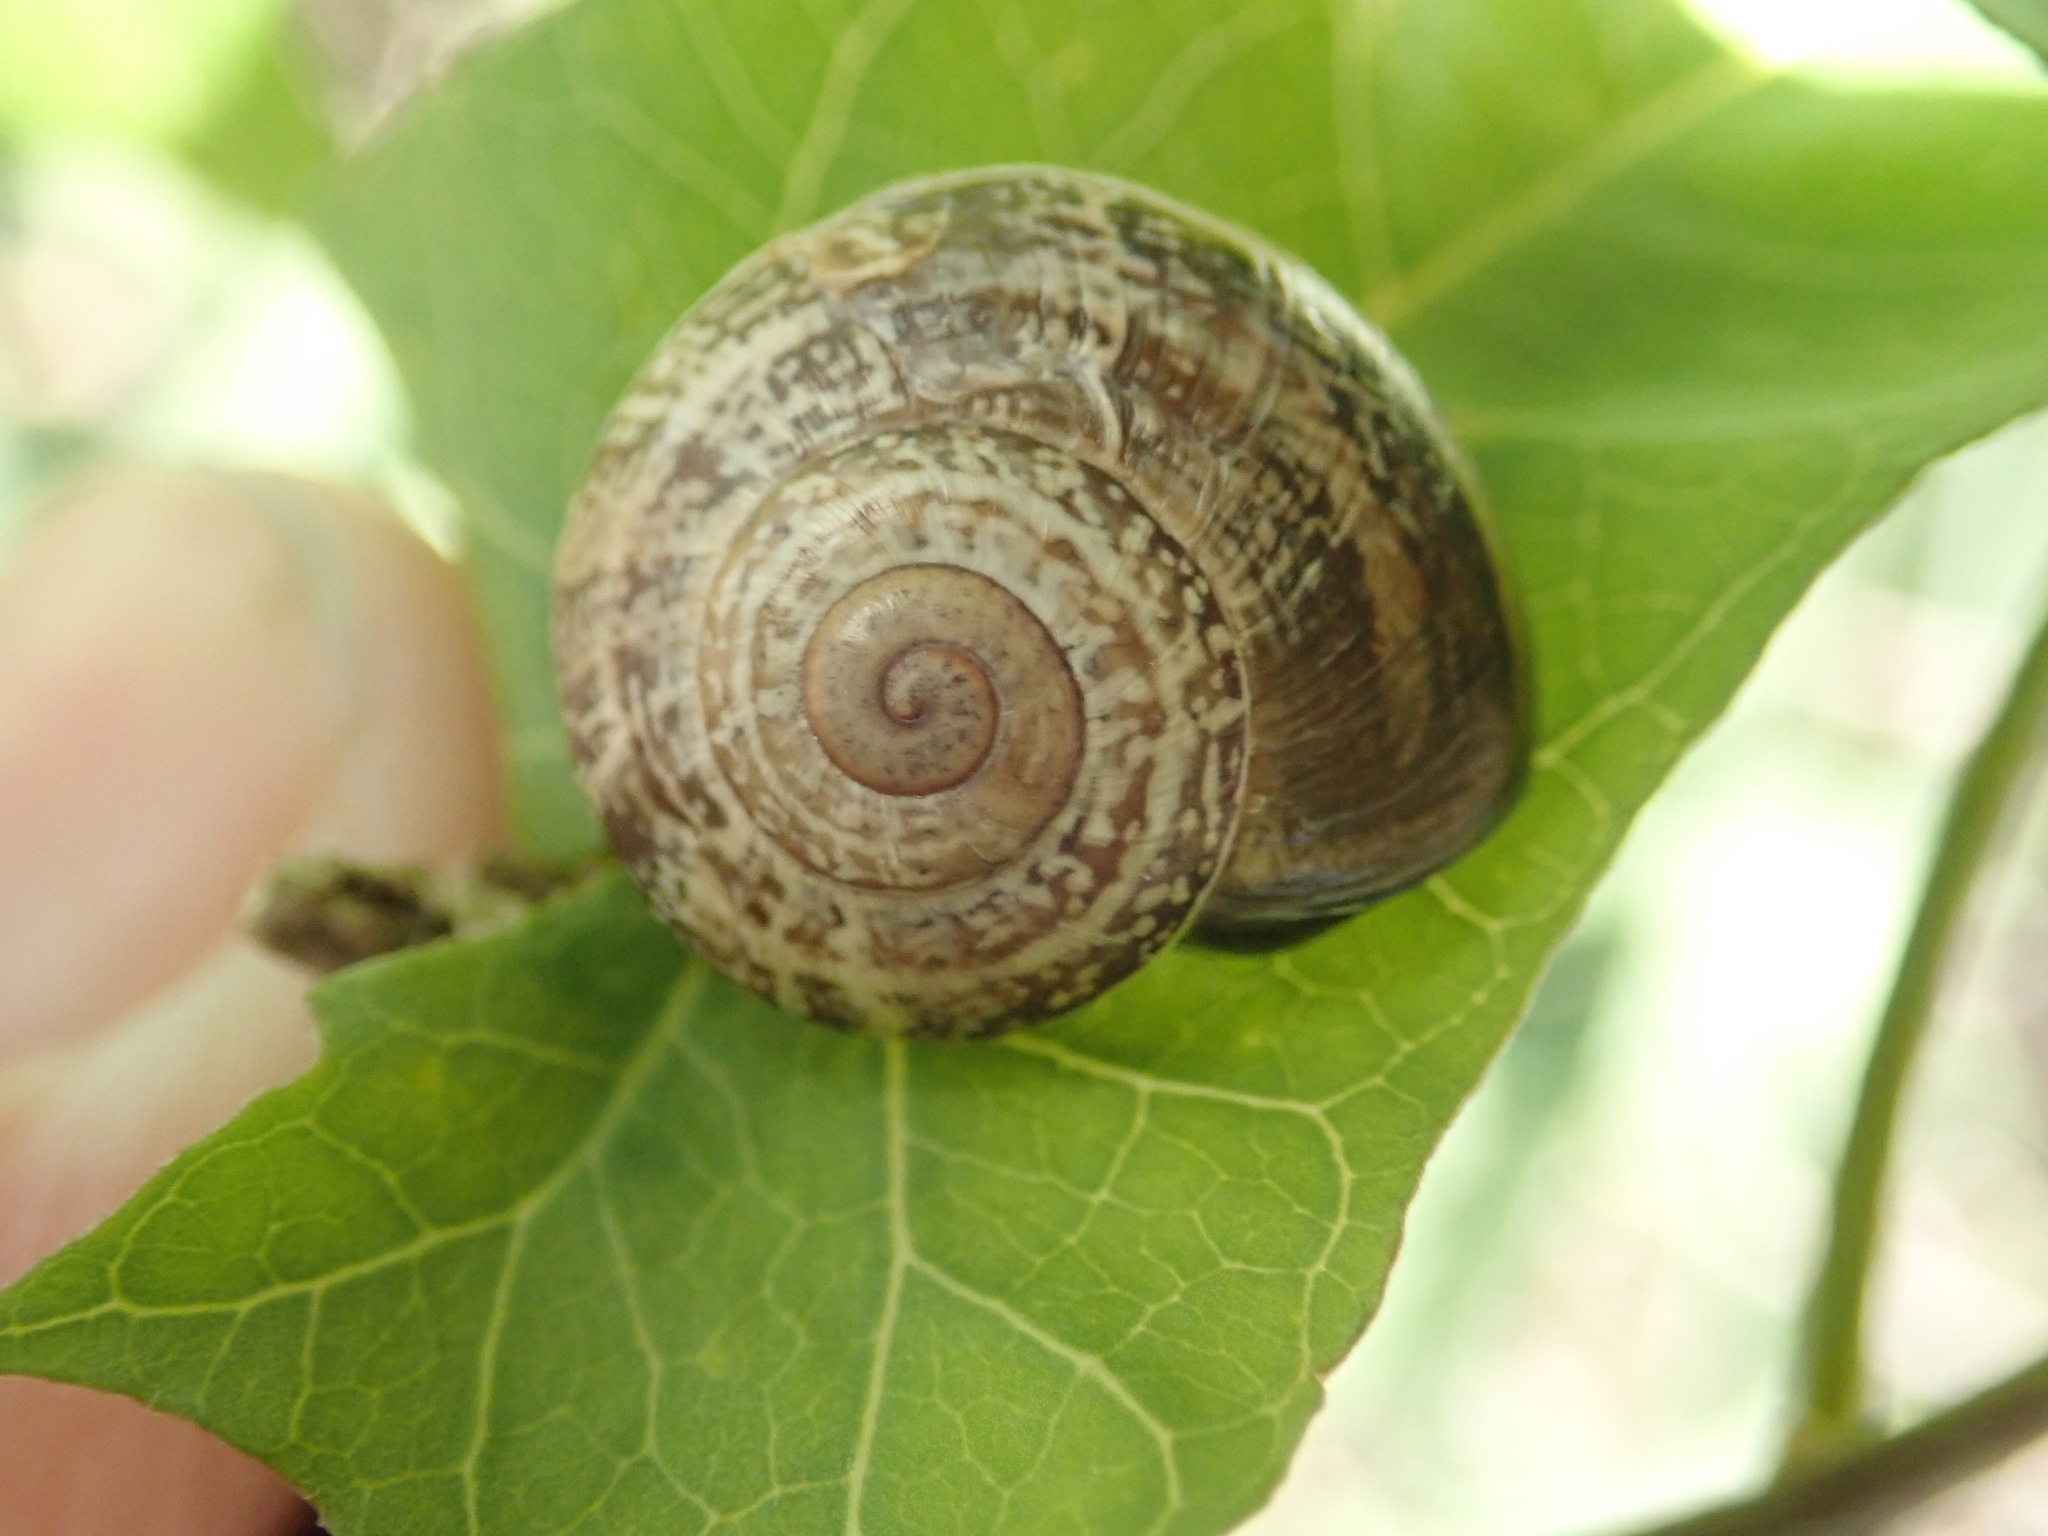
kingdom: Animalia
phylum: Mollusca
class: Gastropoda
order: Stylommatophora
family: Helicidae
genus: Otala
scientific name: Otala lactea
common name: Milk snail
